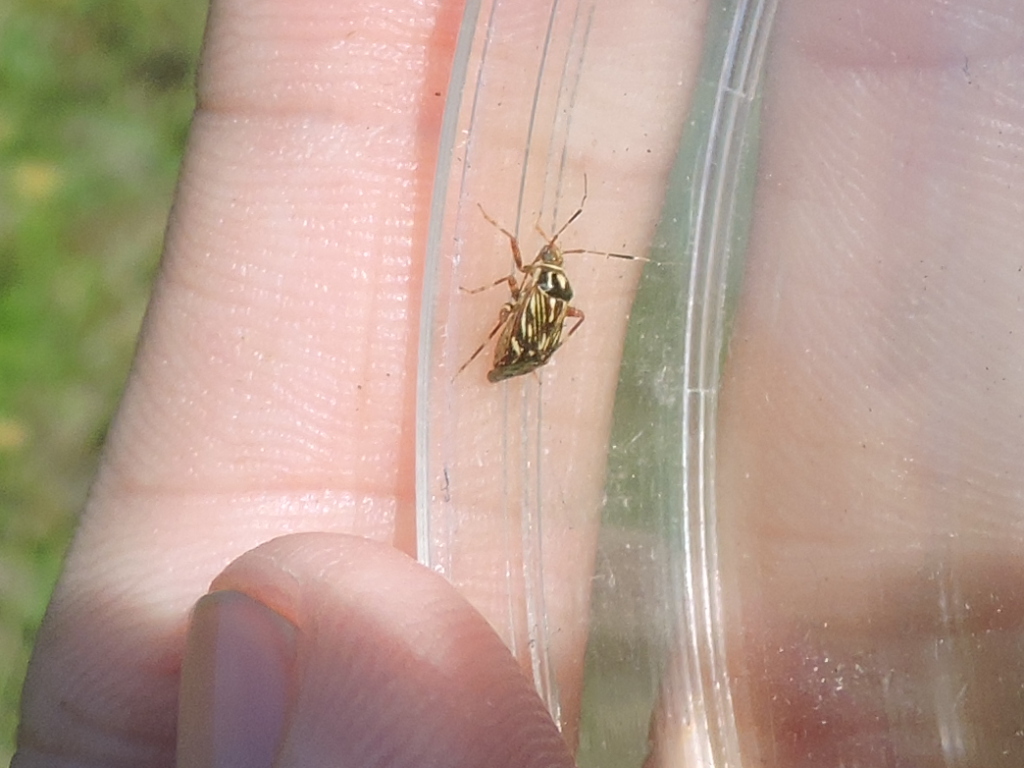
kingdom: Animalia
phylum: Arthropoda
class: Insecta
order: Hemiptera
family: Miridae
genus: Taedia
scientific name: Taedia virgulata
